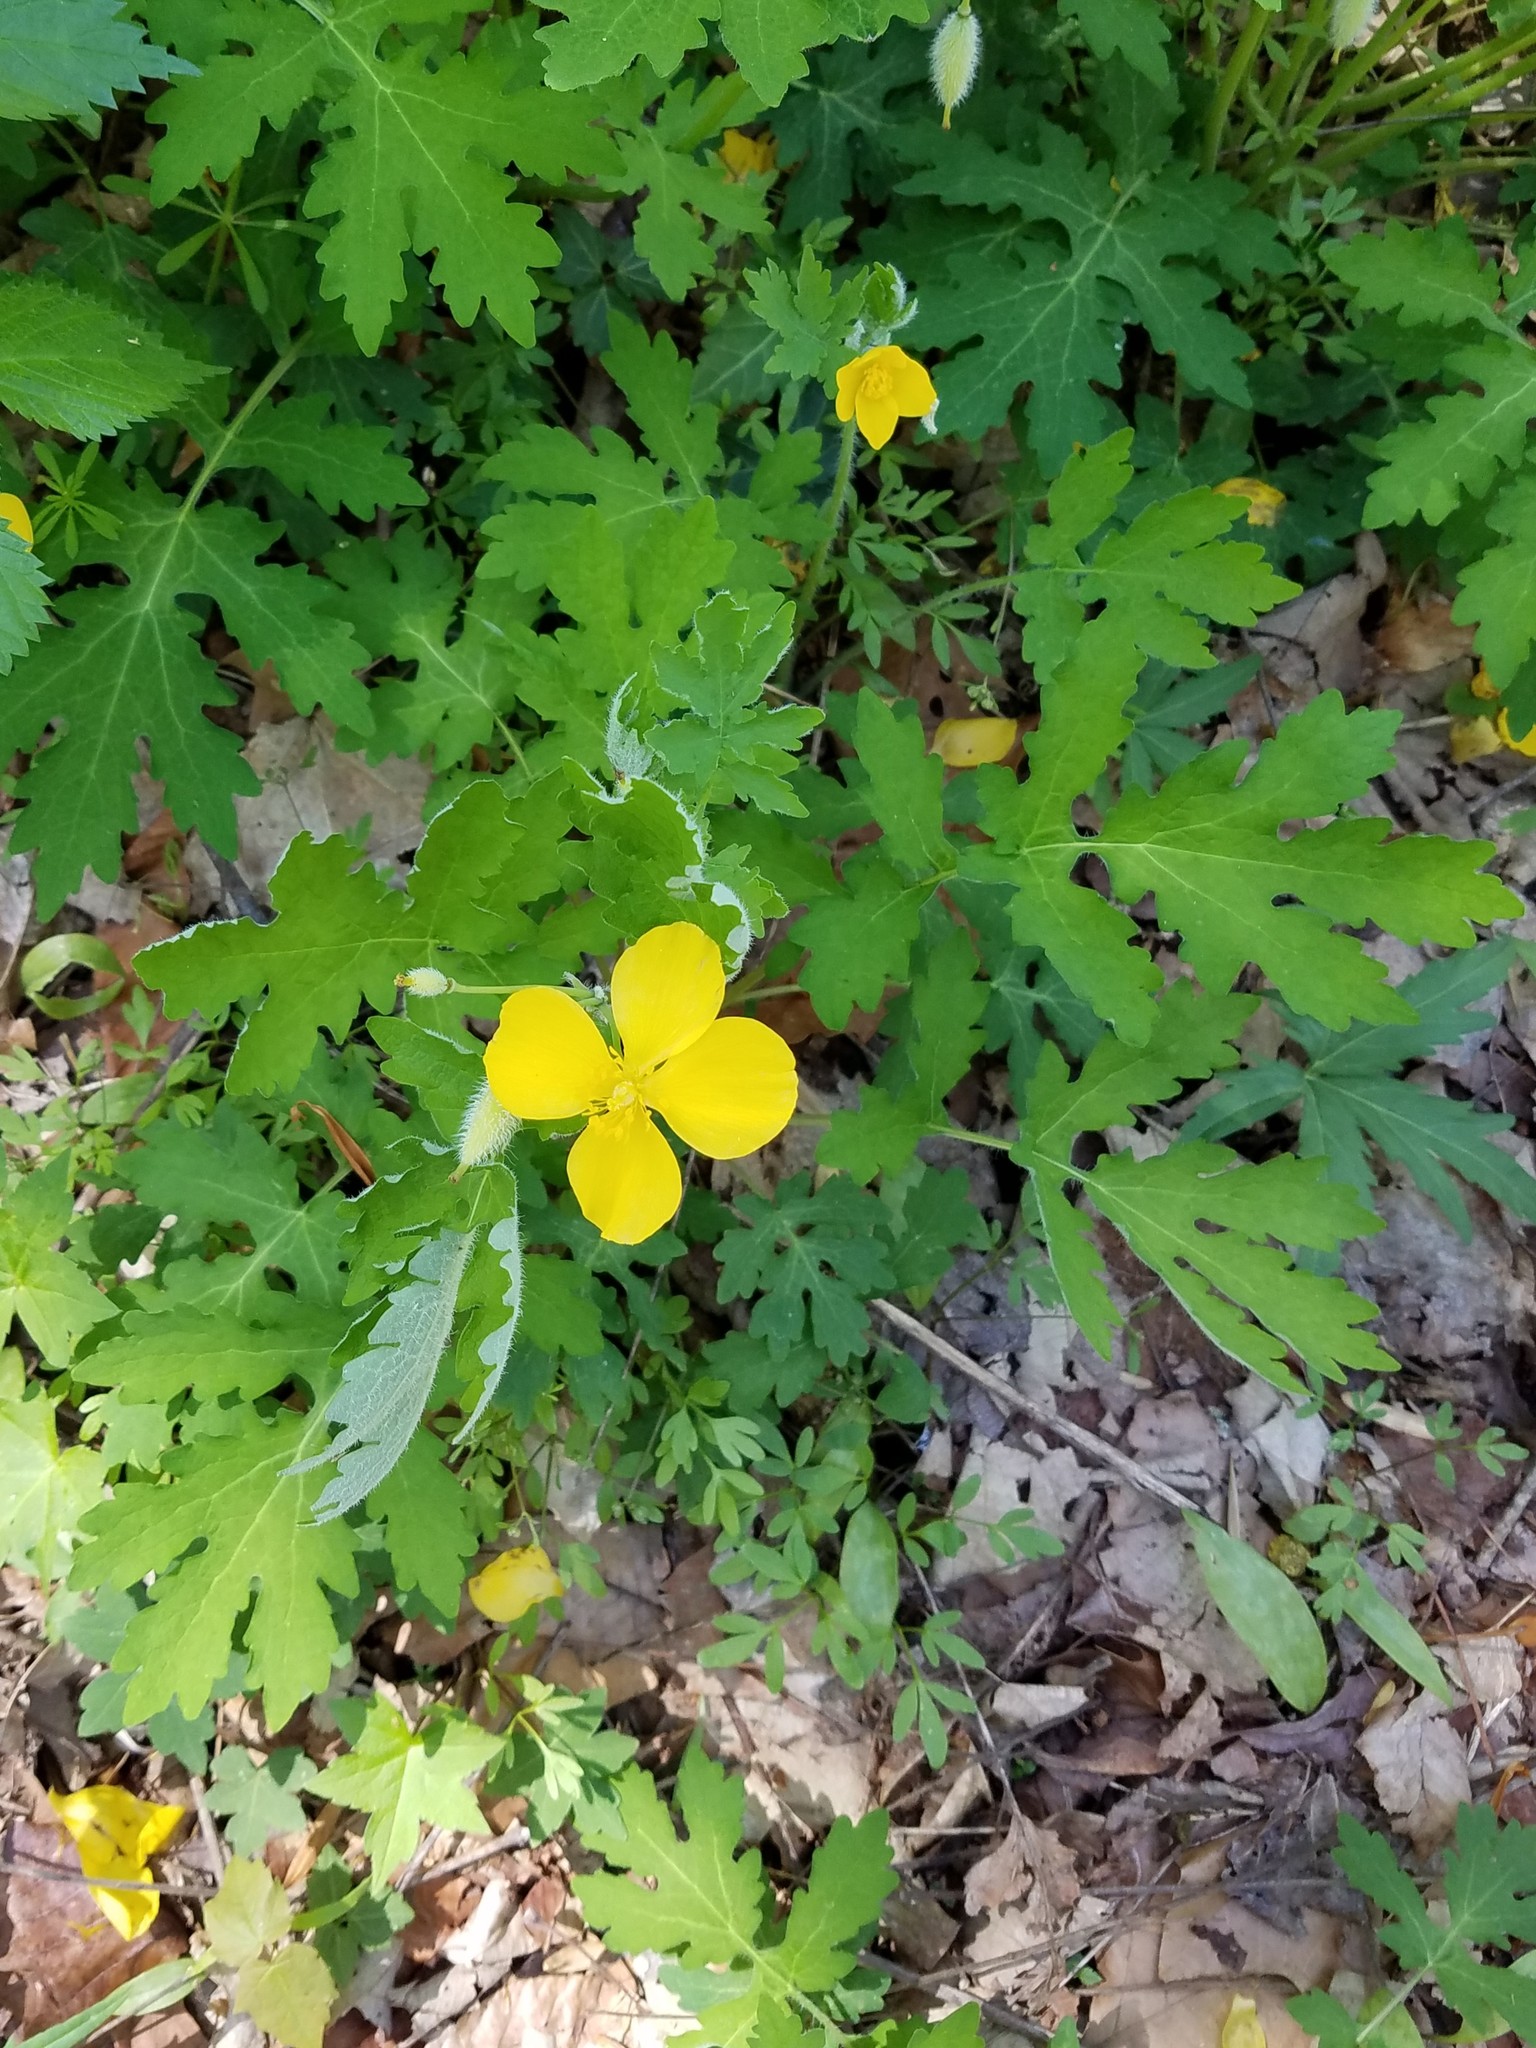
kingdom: Plantae
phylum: Tracheophyta
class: Magnoliopsida
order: Ranunculales
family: Papaveraceae
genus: Stylophorum
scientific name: Stylophorum diphyllum
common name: Celandine poppy
